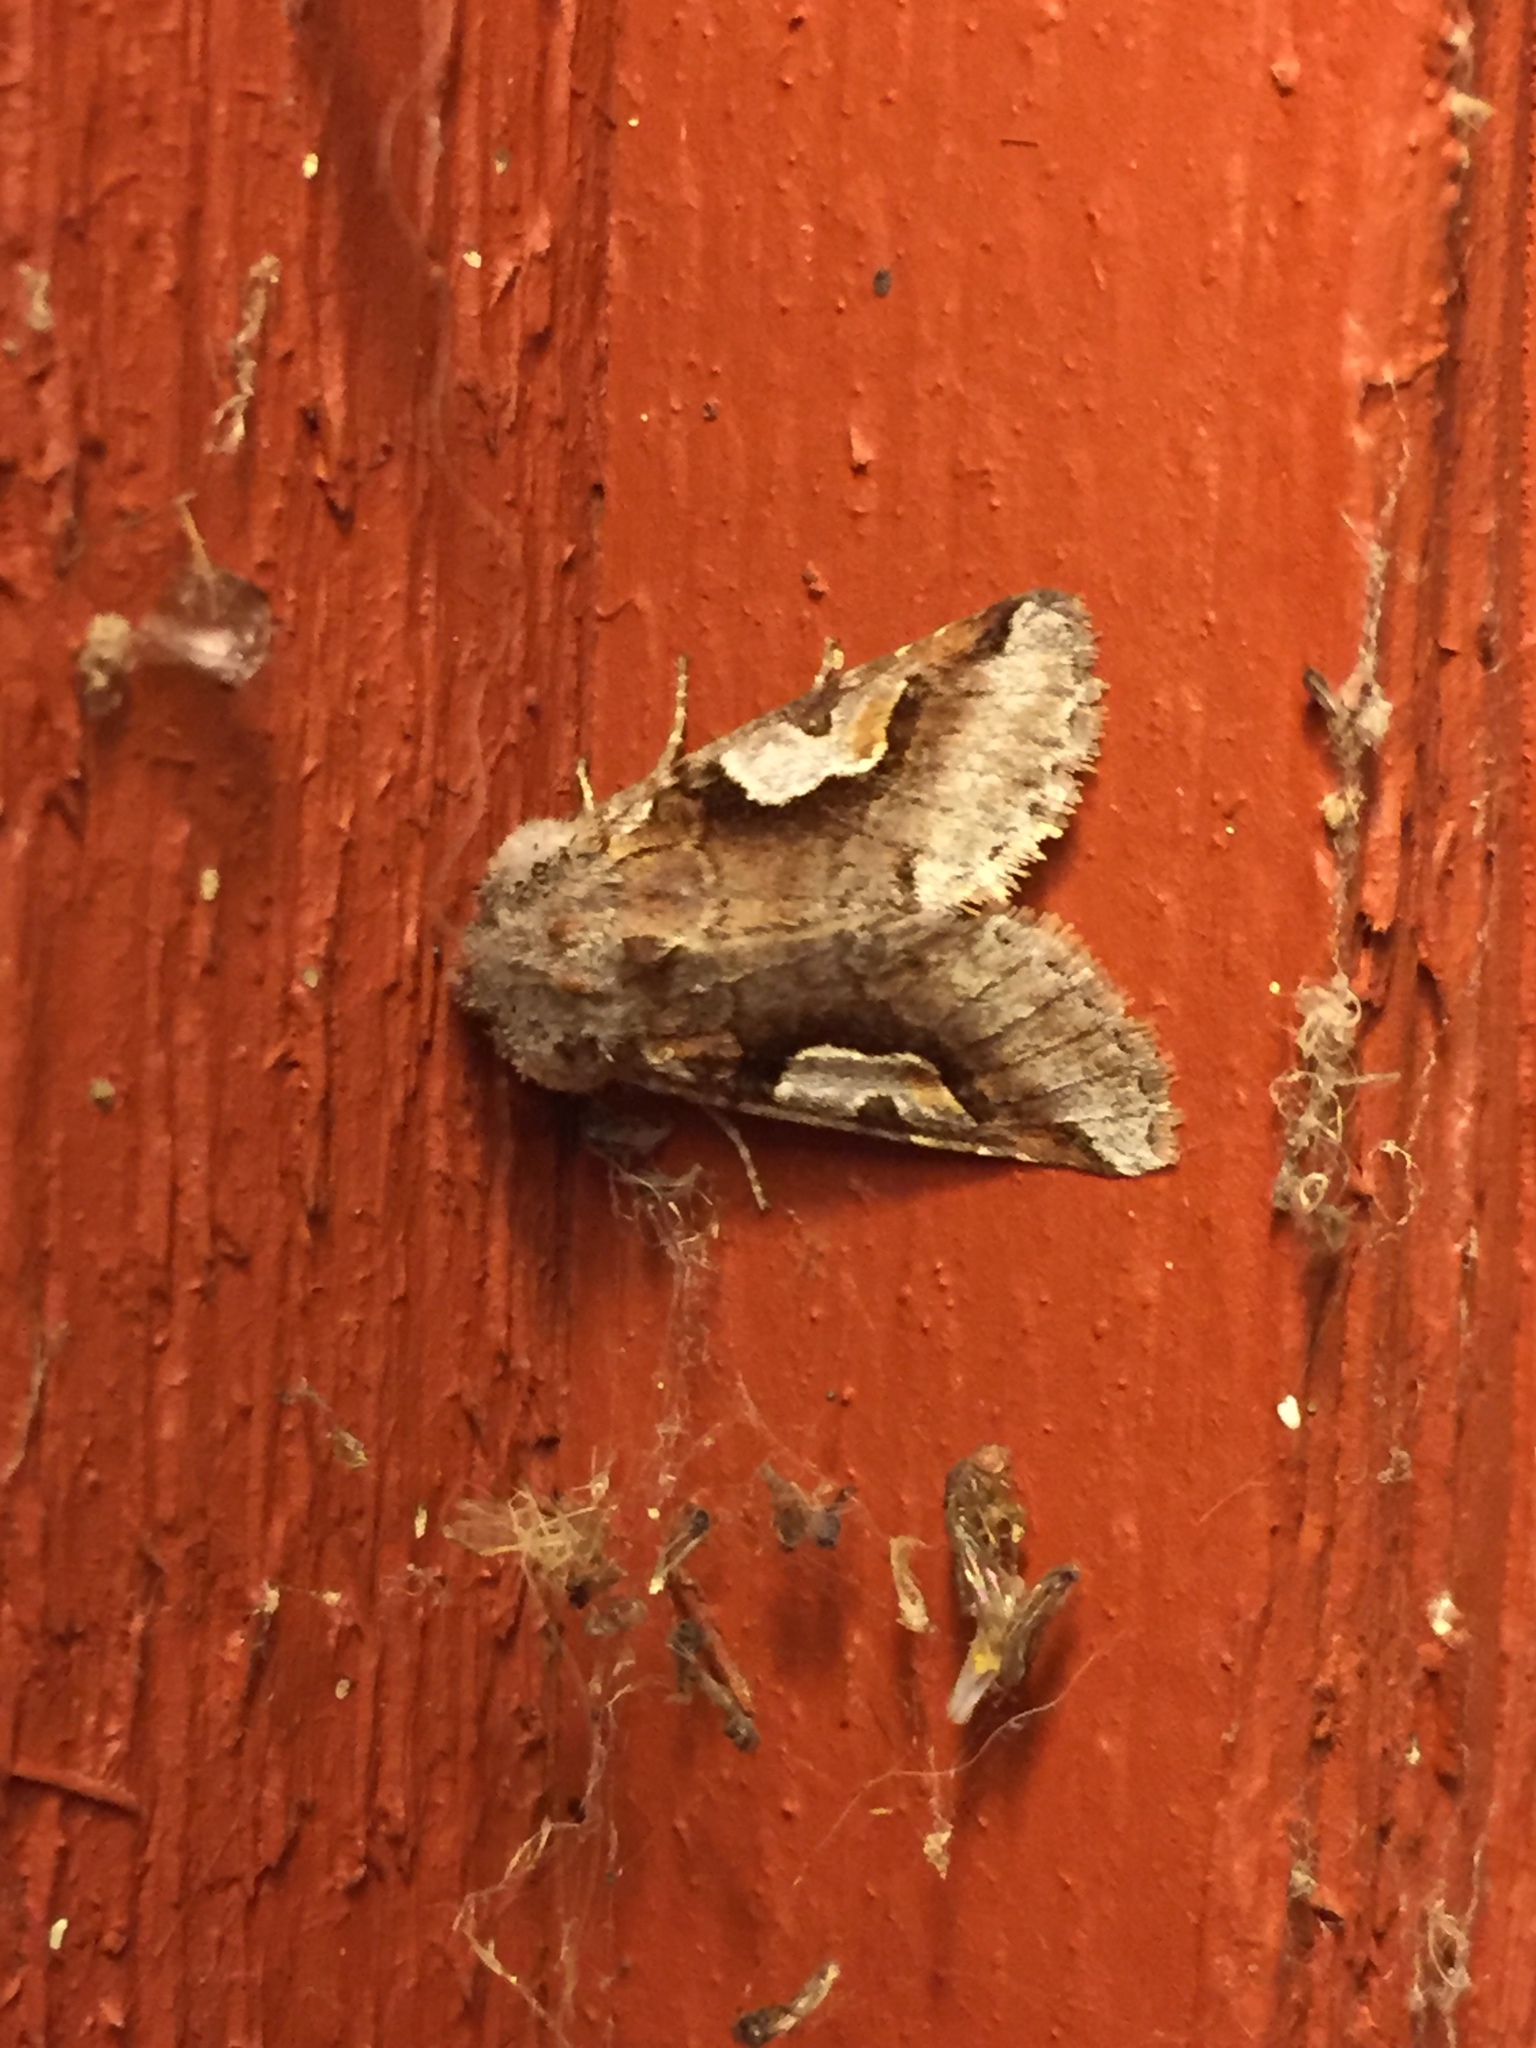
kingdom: Animalia
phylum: Arthropoda
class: Insecta
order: Lepidoptera
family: Noctuidae
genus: Stretchia
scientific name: Stretchia muricina
